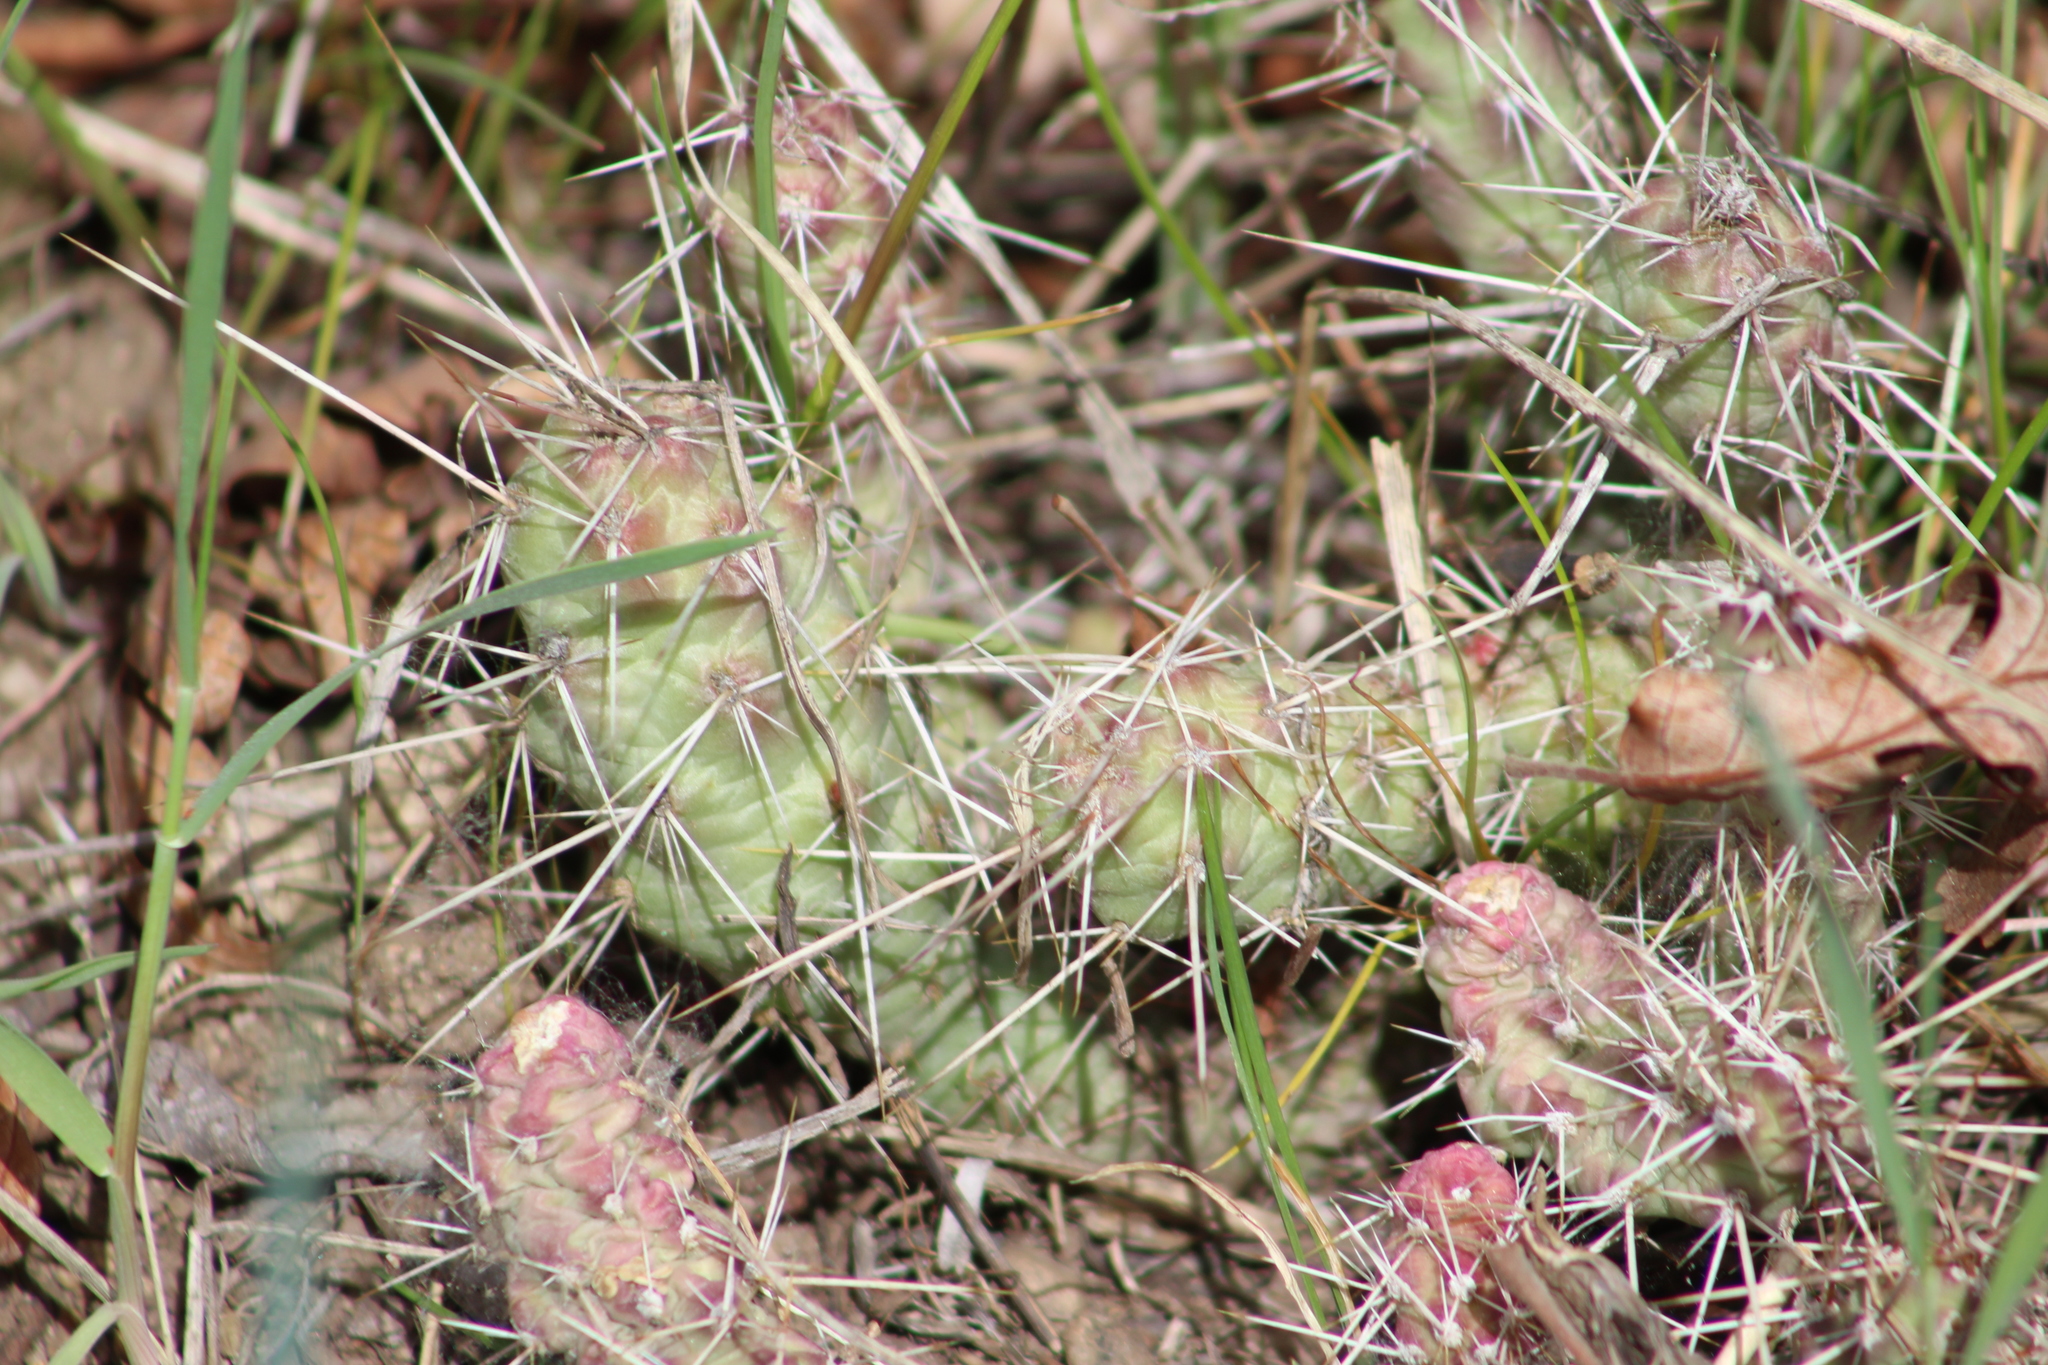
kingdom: Plantae
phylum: Tracheophyta
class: Magnoliopsida
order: Caryophyllales
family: Cactaceae
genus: Opuntia
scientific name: Opuntia fragilis
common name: Brittle cactus
